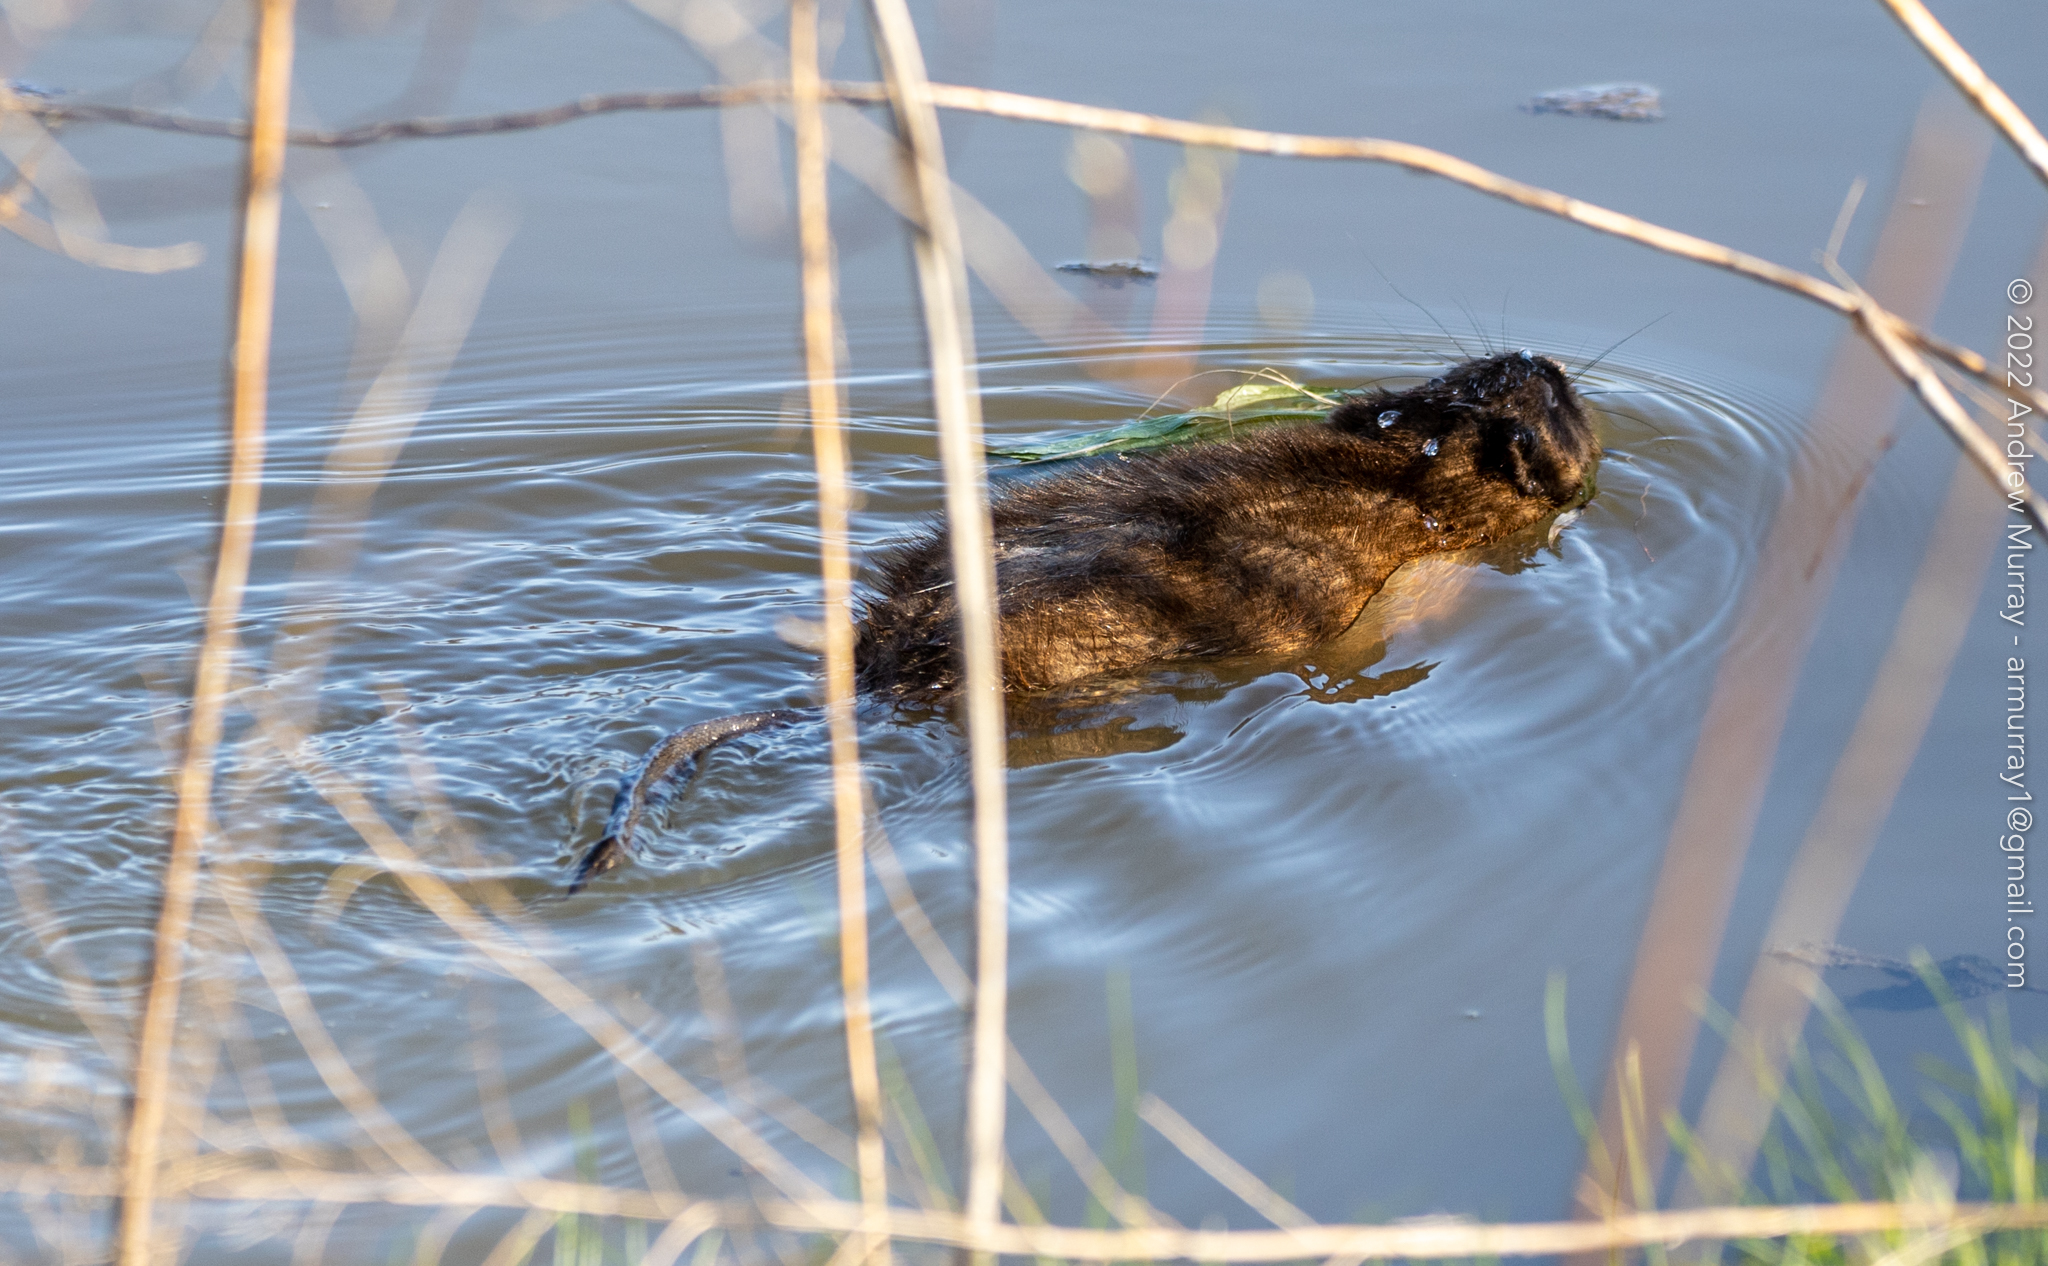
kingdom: Animalia
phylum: Chordata
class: Mammalia
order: Rodentia
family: Cricetidae
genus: Ondatra
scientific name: Ondatra zibethicus
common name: Muskrat
